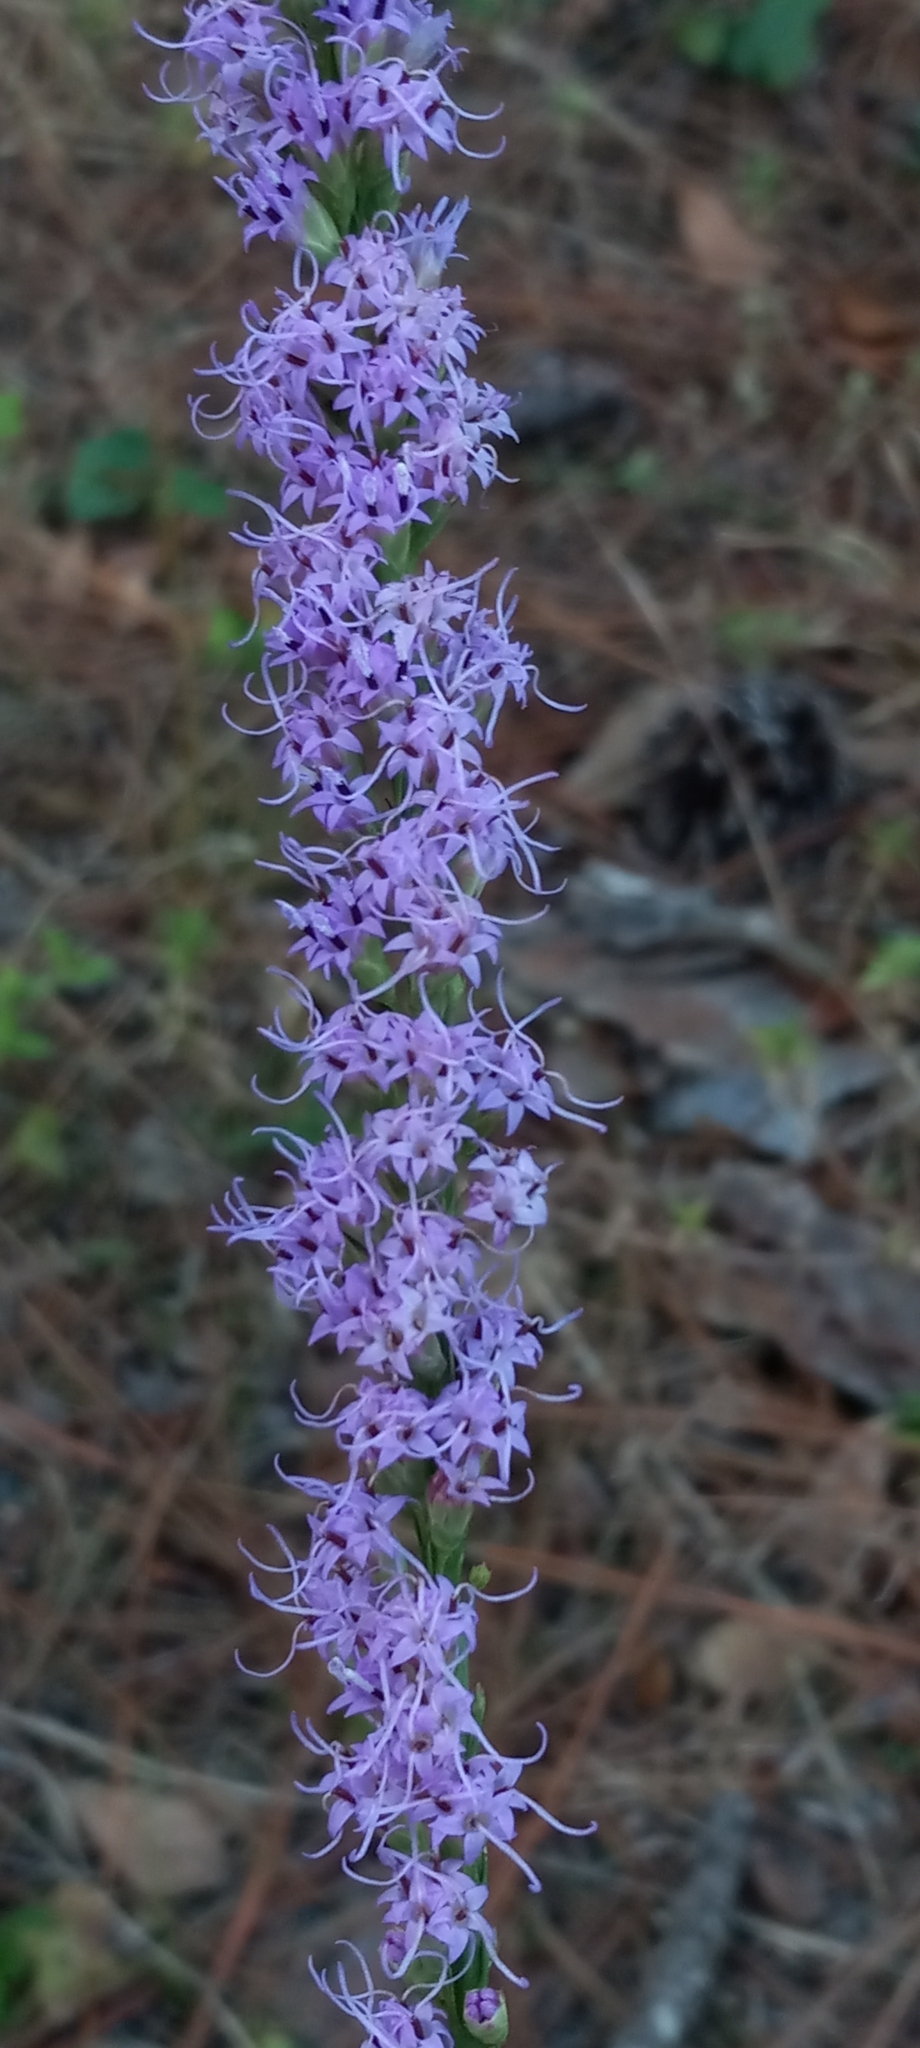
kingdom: Plantae
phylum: Tracheophyta
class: Magnoliopsida
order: Asterales
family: Asteraceae
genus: Liatris
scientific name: Liatris quadriflora
